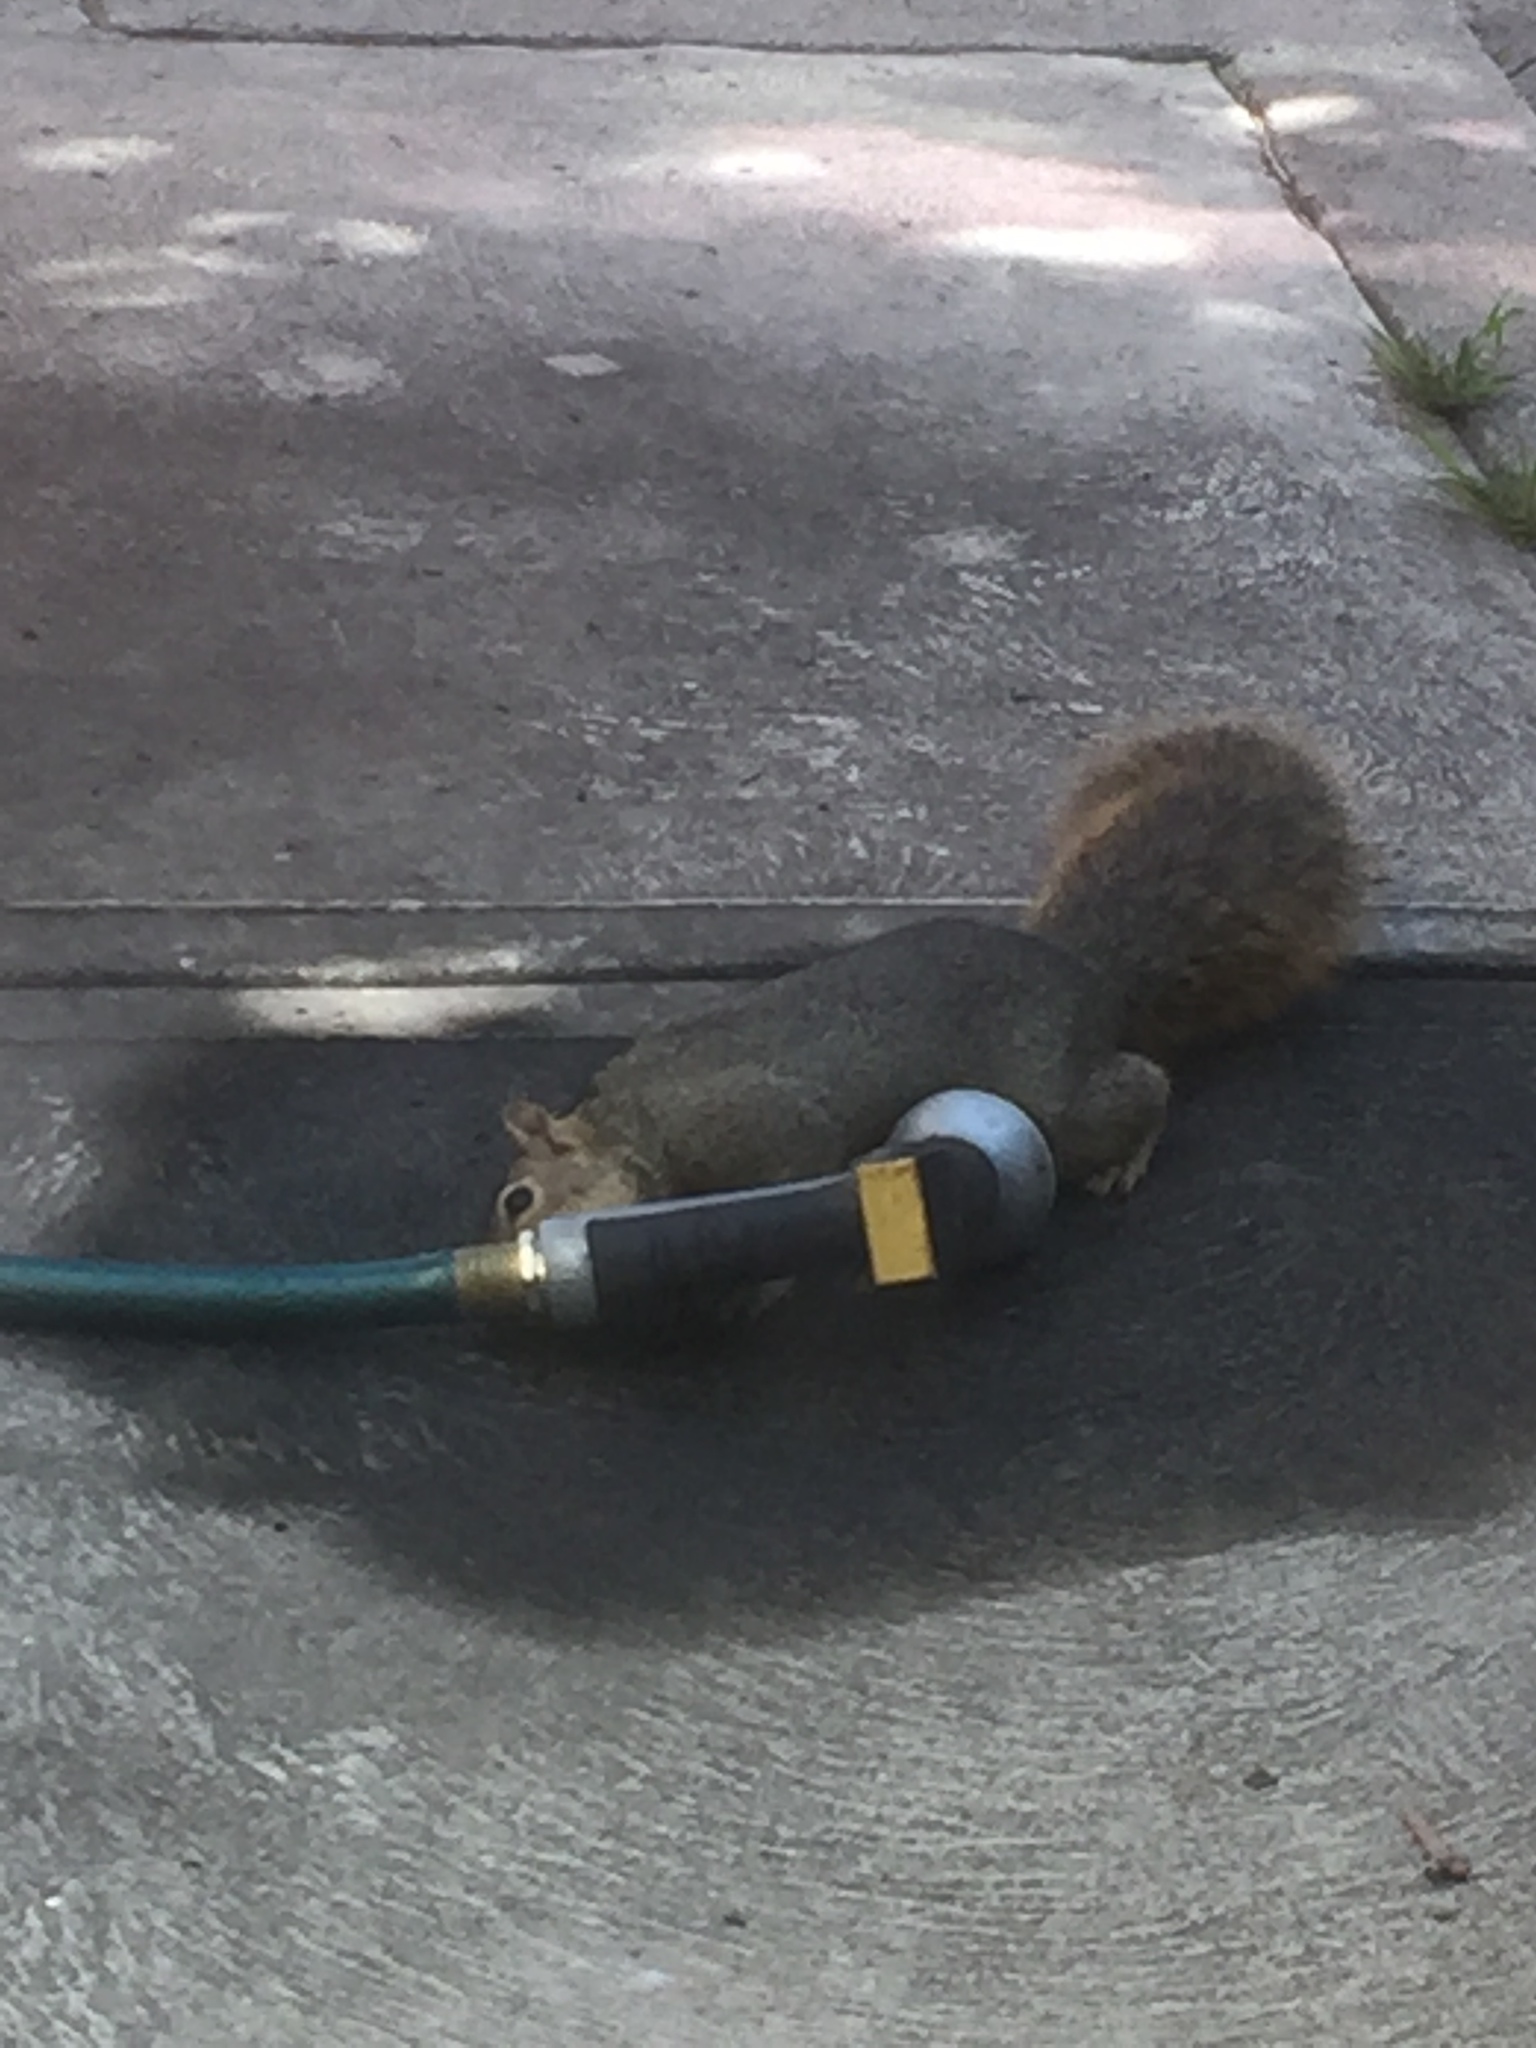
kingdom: Animalia
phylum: Chordata
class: Mammalia
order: Rodentia
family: Sciuridae
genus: Sciurus
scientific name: Sciurus niger
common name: Fox squirrel
